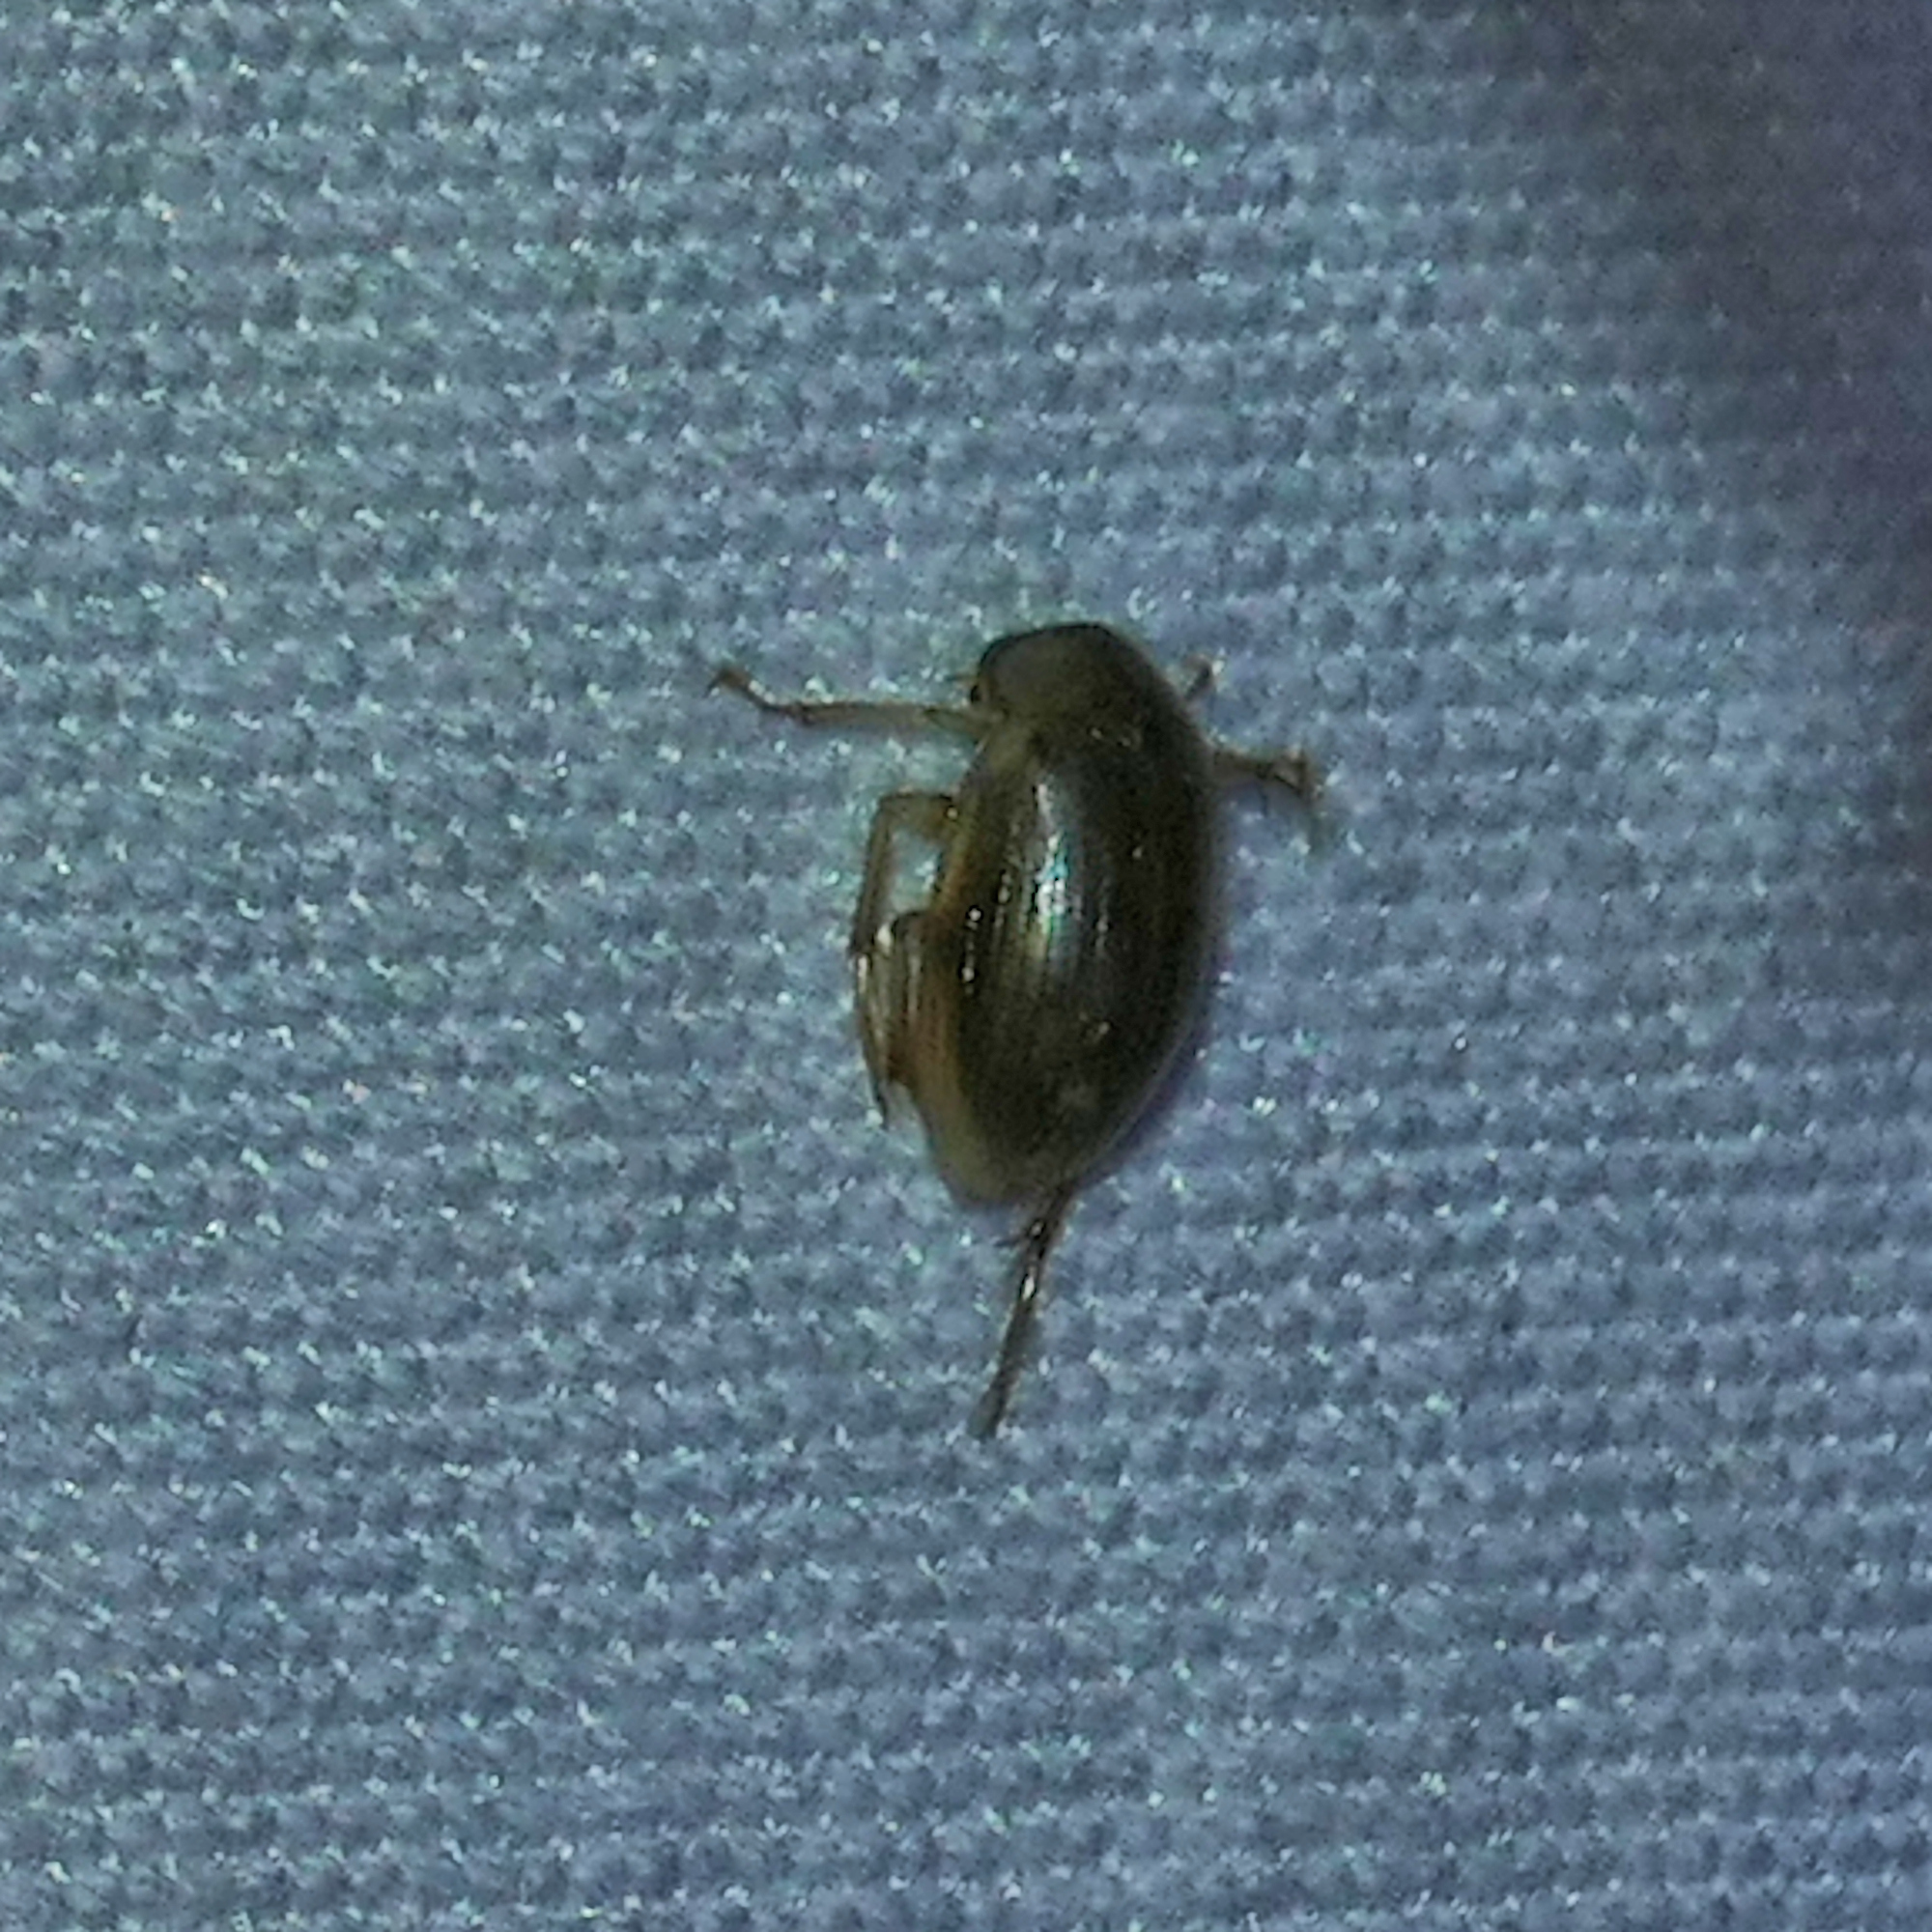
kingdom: Animalia
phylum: Arthropoda
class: Insecta
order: Coleoptera
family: Hydrophilidae
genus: Berosus
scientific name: Berosus
